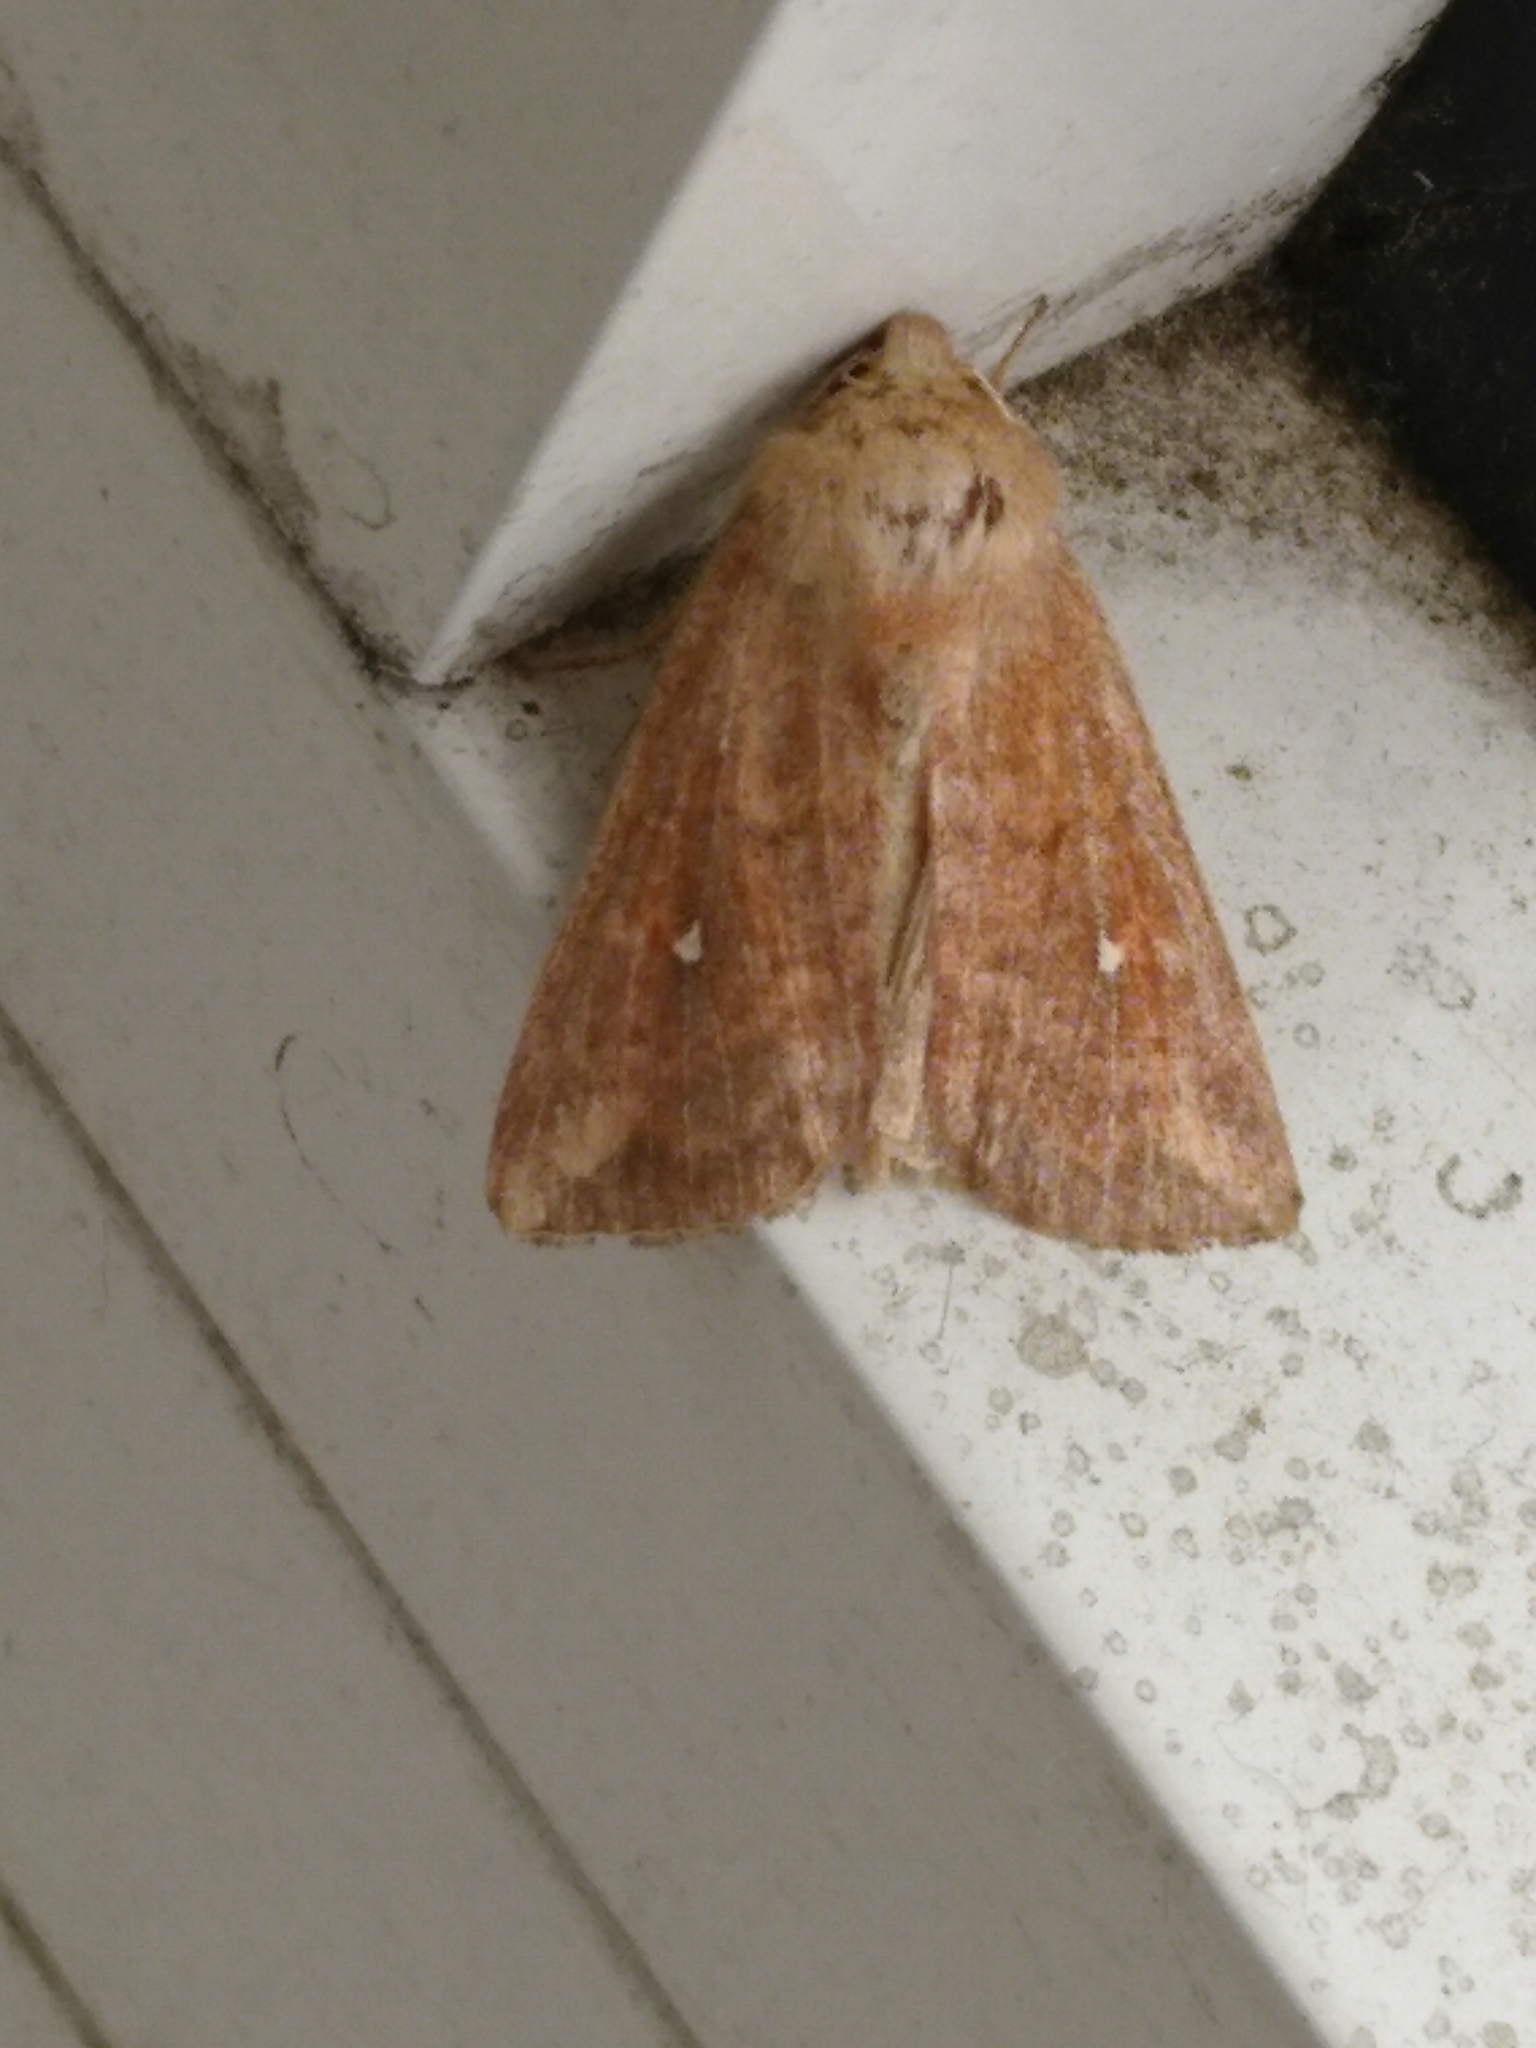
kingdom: Animalia
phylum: Arthropoda
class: Insecta
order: Lepidoptera
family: Noctuidae
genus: Mythimna
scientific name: Mythimna albipuncta
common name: White-point
